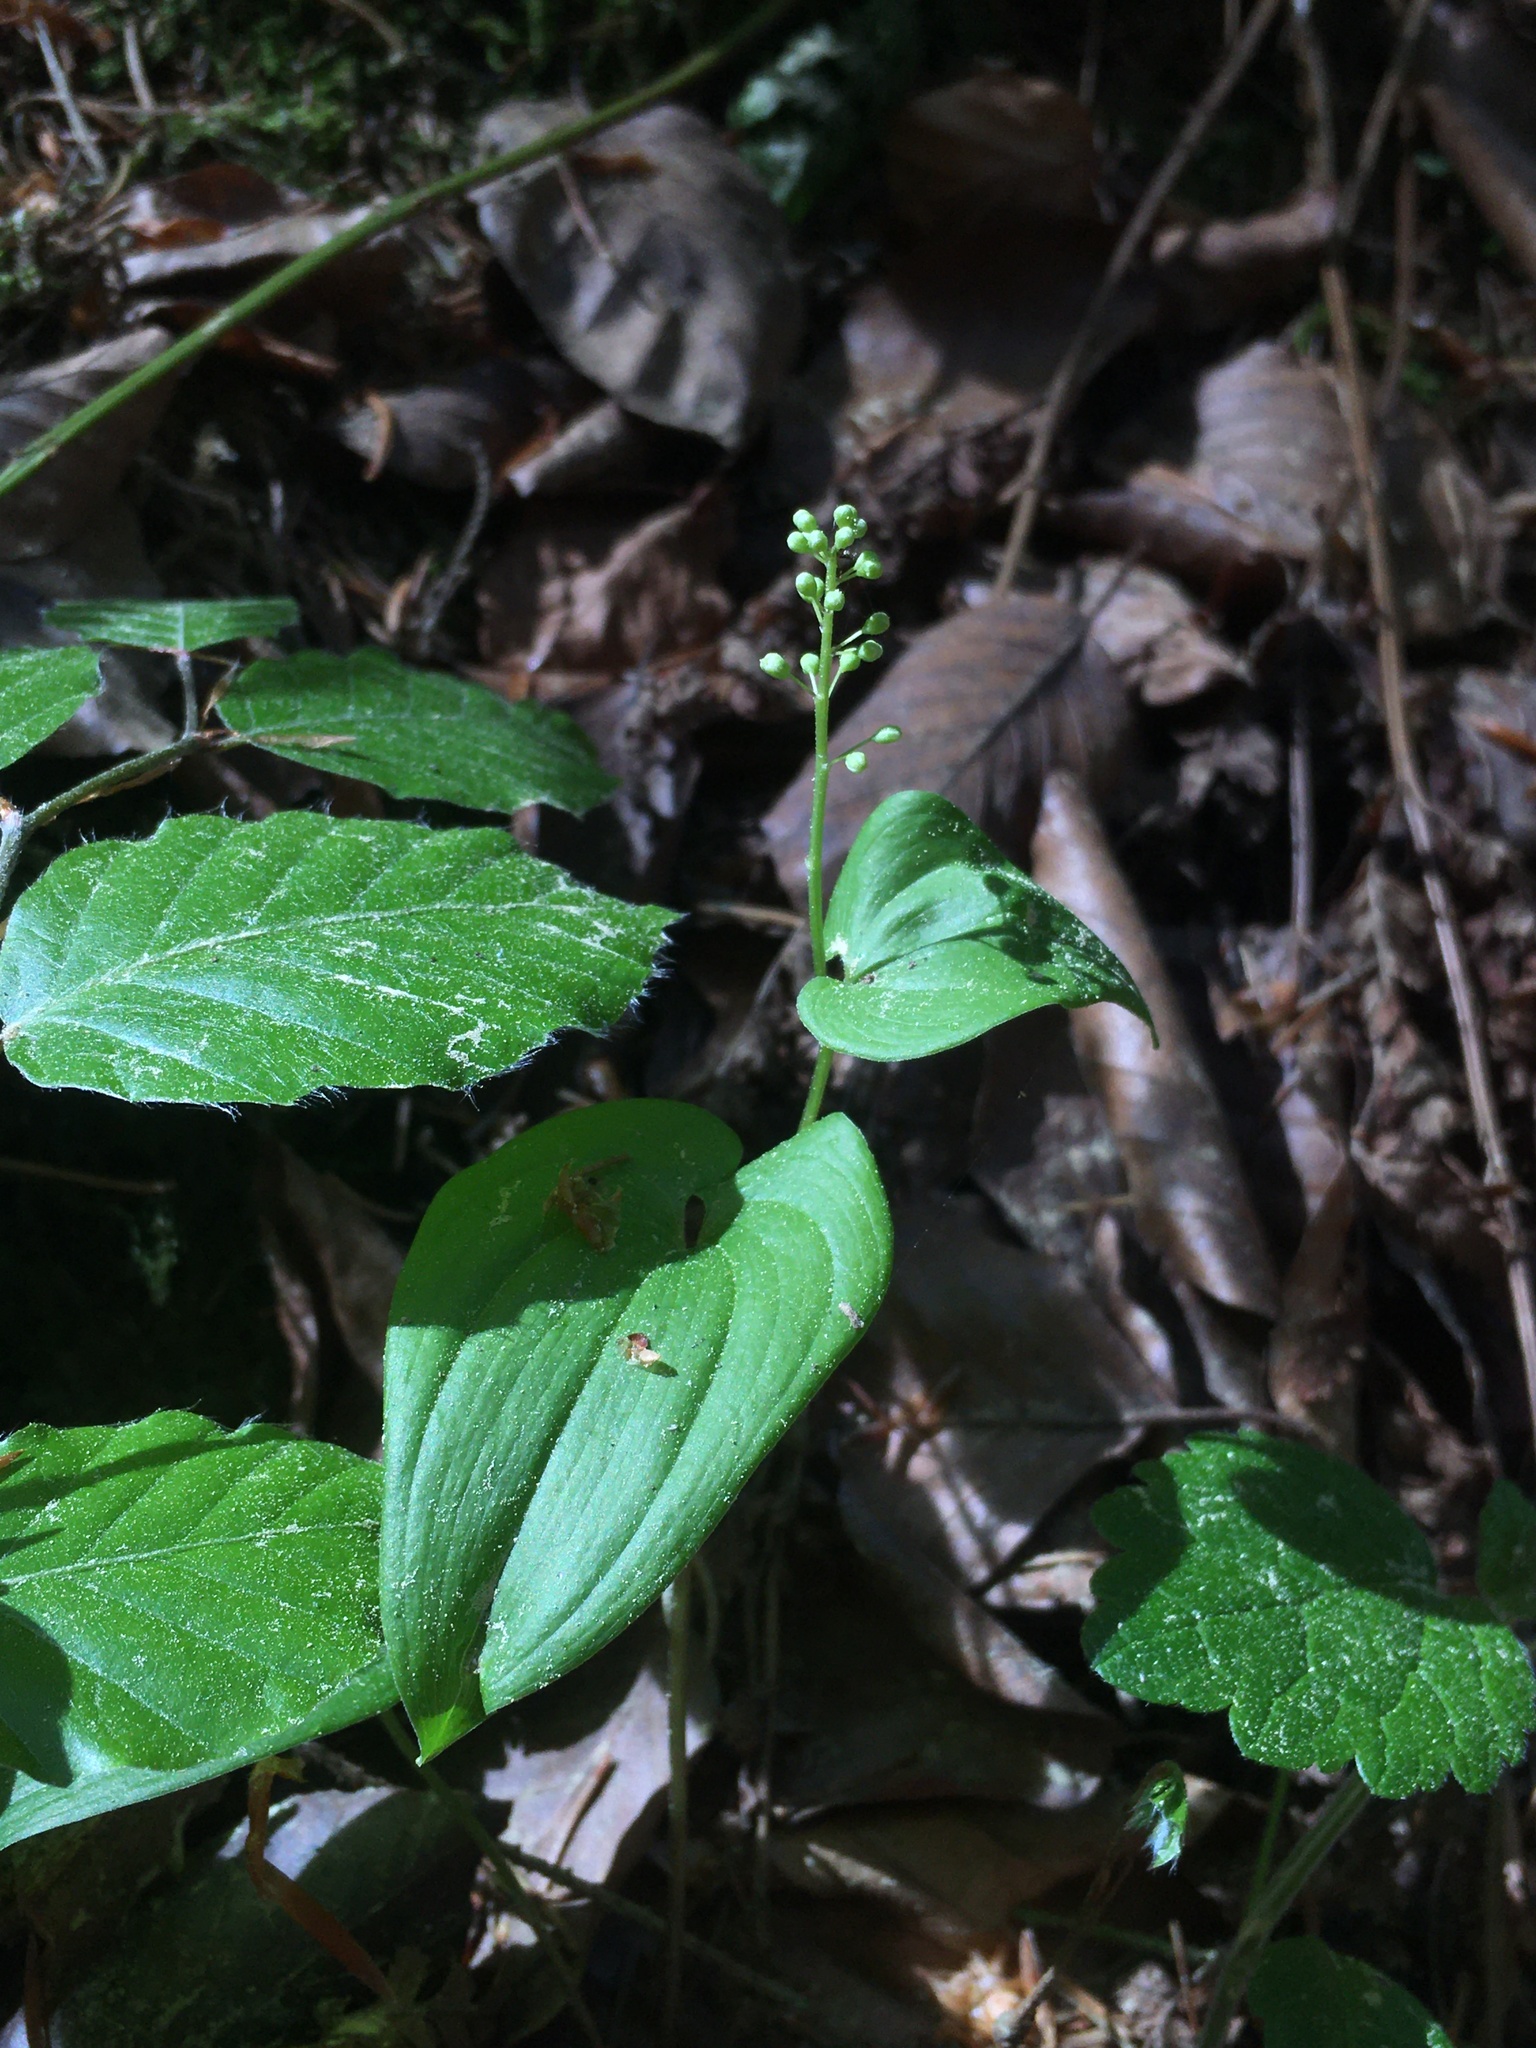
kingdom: Plantae
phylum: Tracheophyta
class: Liliopsida
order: Asparagales
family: Asparagaceae
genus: Maianthemum
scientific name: Maianthemum bifolium
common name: May lily
